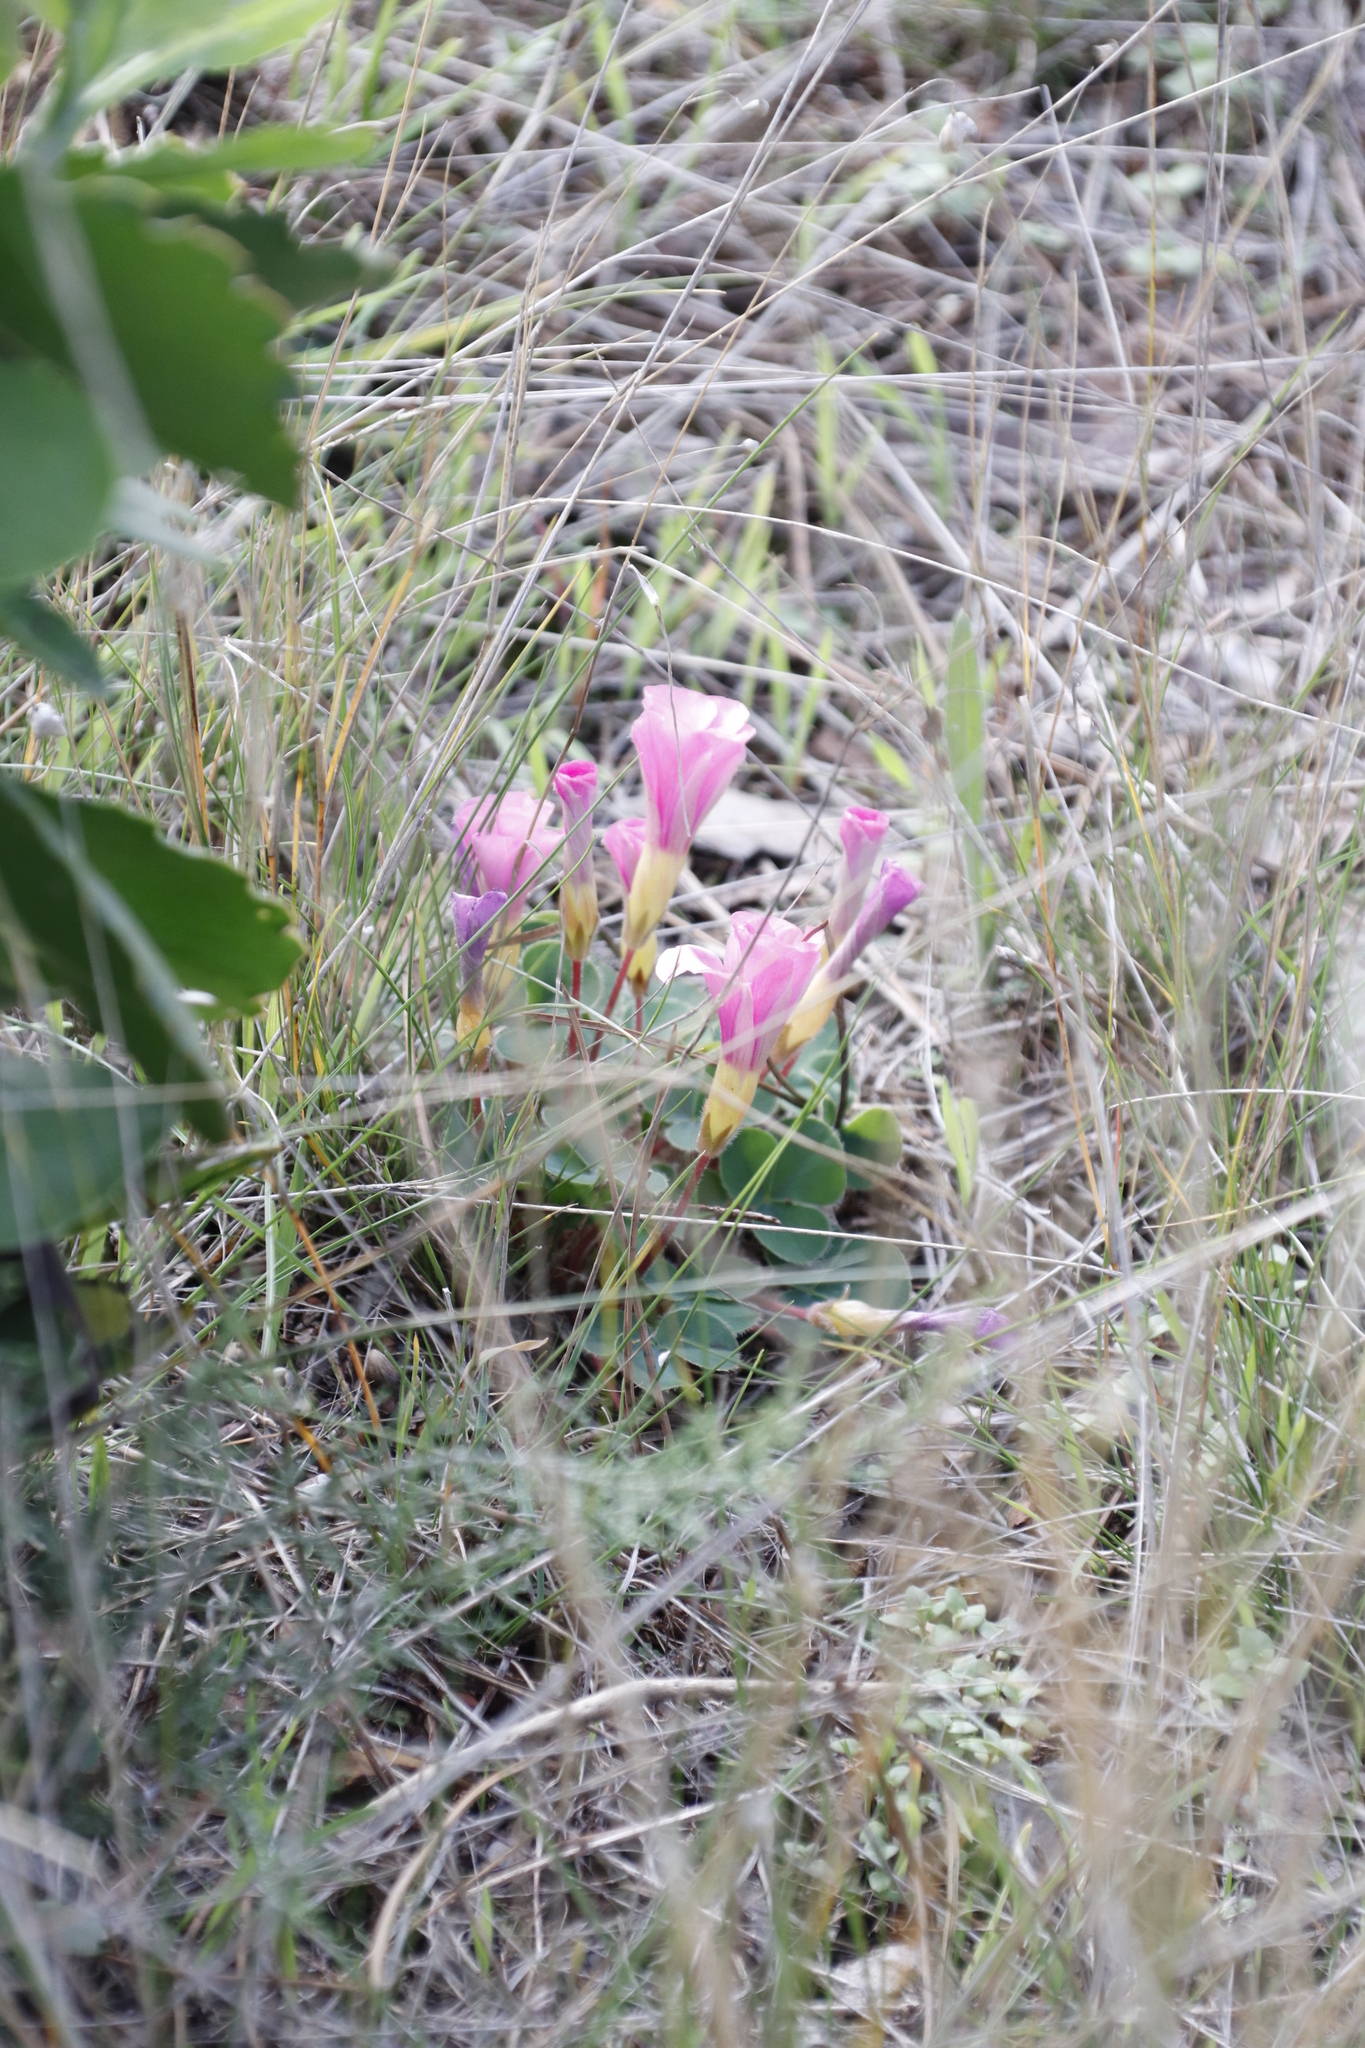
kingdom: Plantae
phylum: Tracheophyta
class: Magnoliopsida
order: Oxalidales
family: Oxalidaceae
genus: Oxalis
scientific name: Oxalis purpurea
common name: Purple woodsorrel
